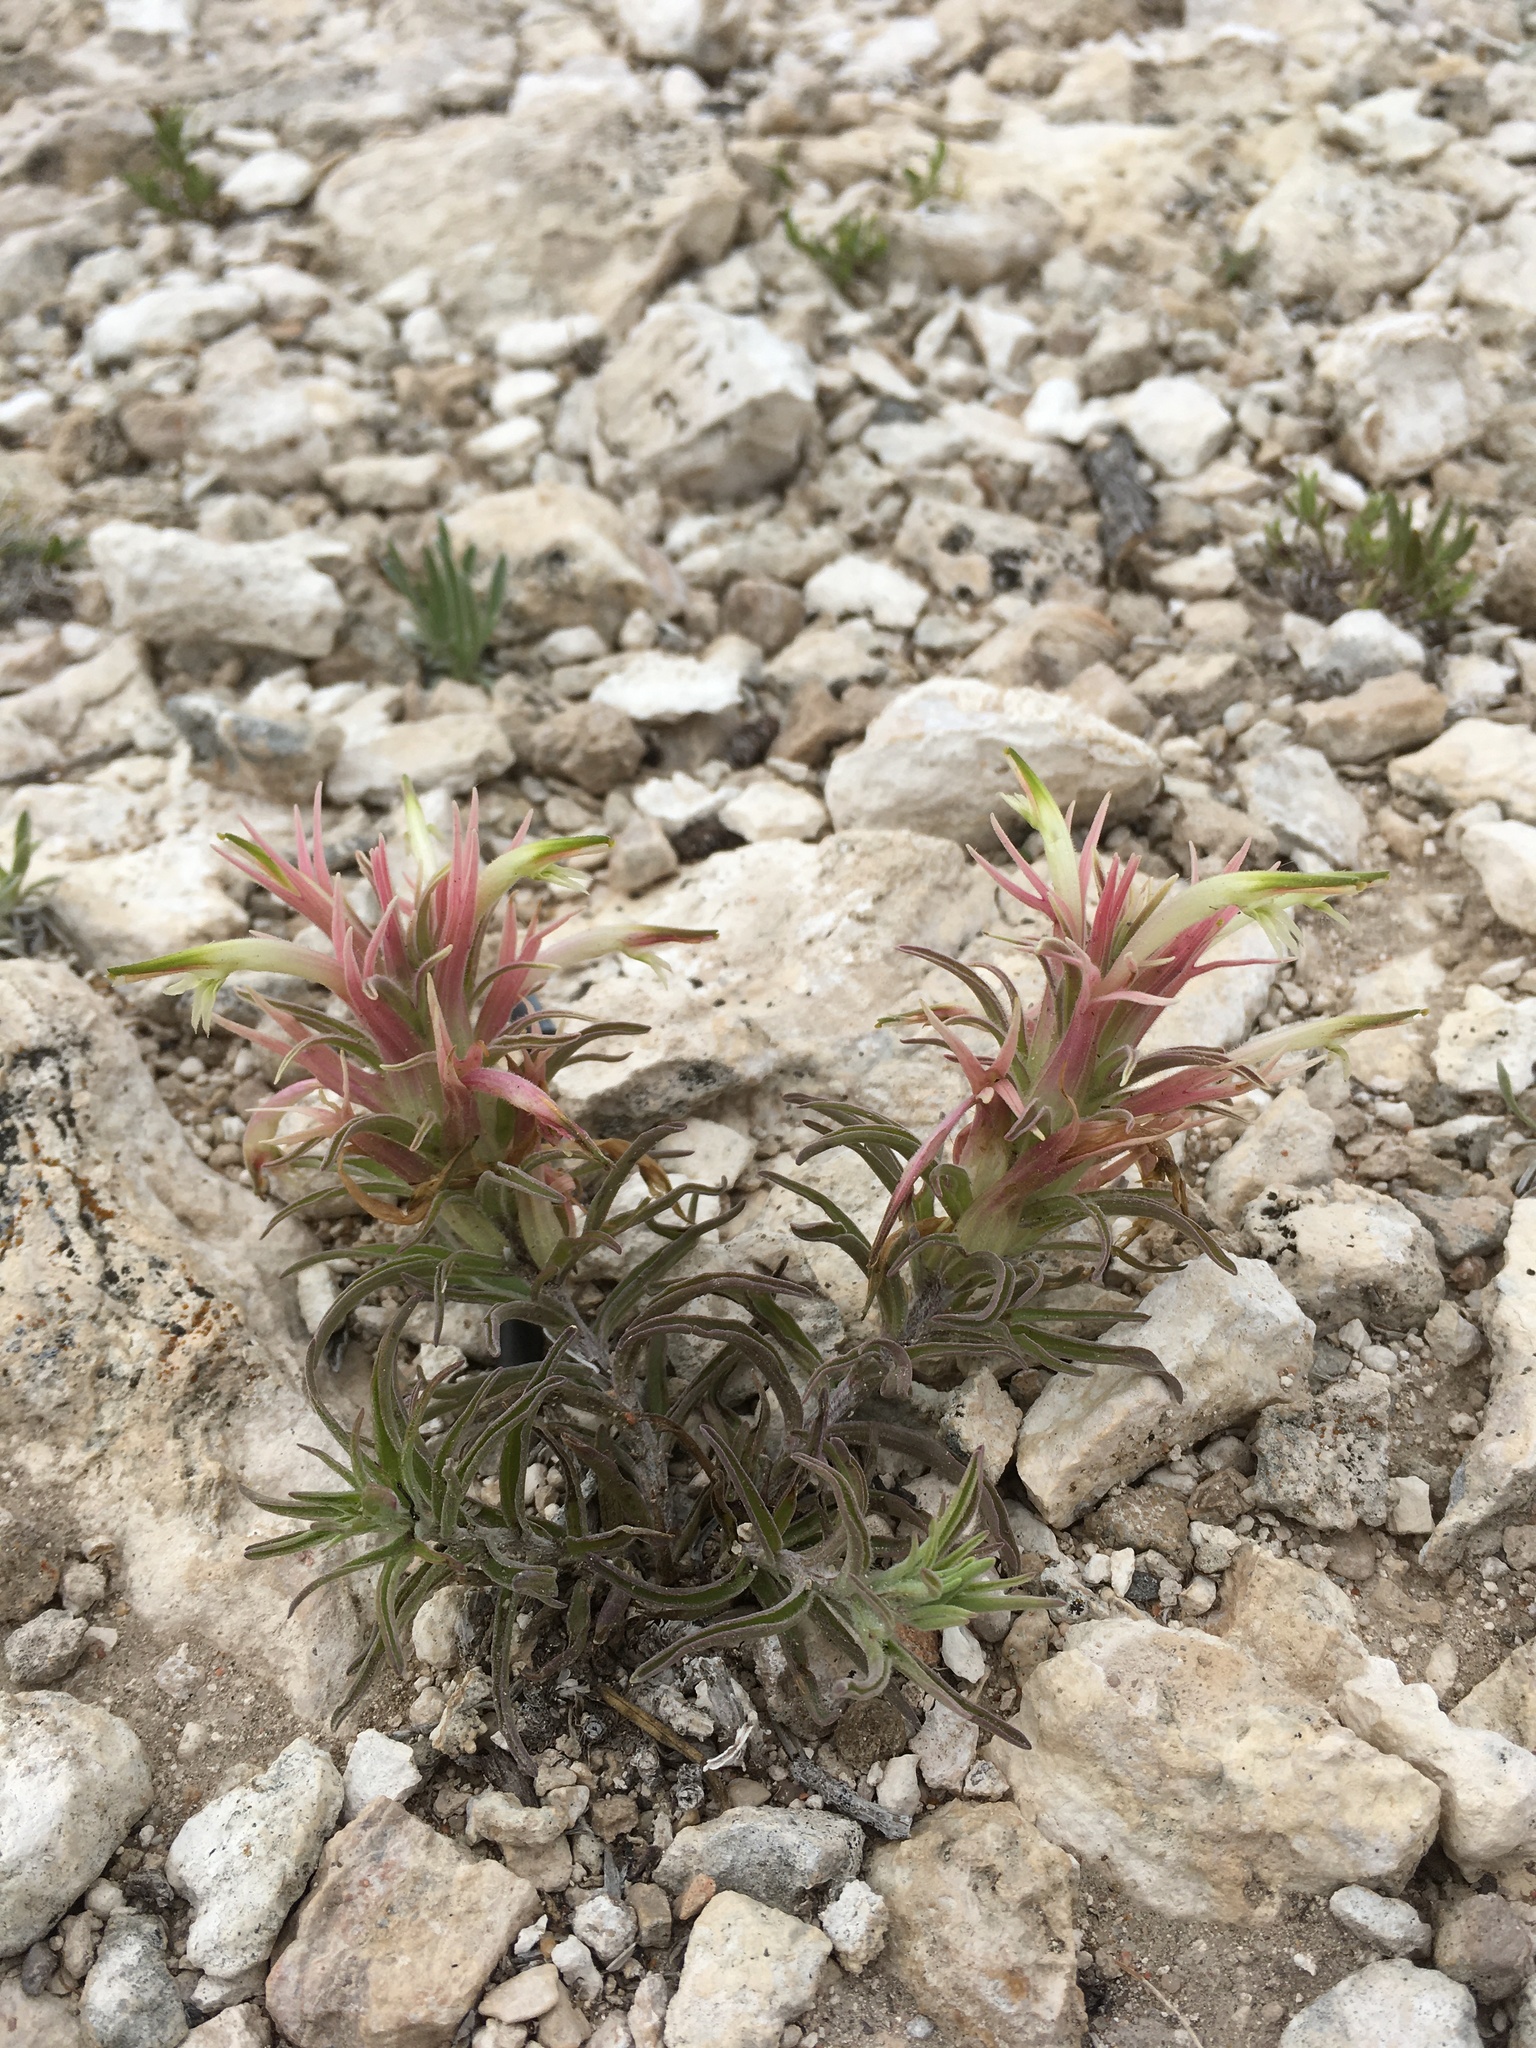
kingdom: Plantae
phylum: Tracheophyta
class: Magnoliopsida
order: Lamiales
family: Orobanchaceae
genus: Castilleja
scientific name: Castilleja sessiliflora
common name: Downy paintbrush
